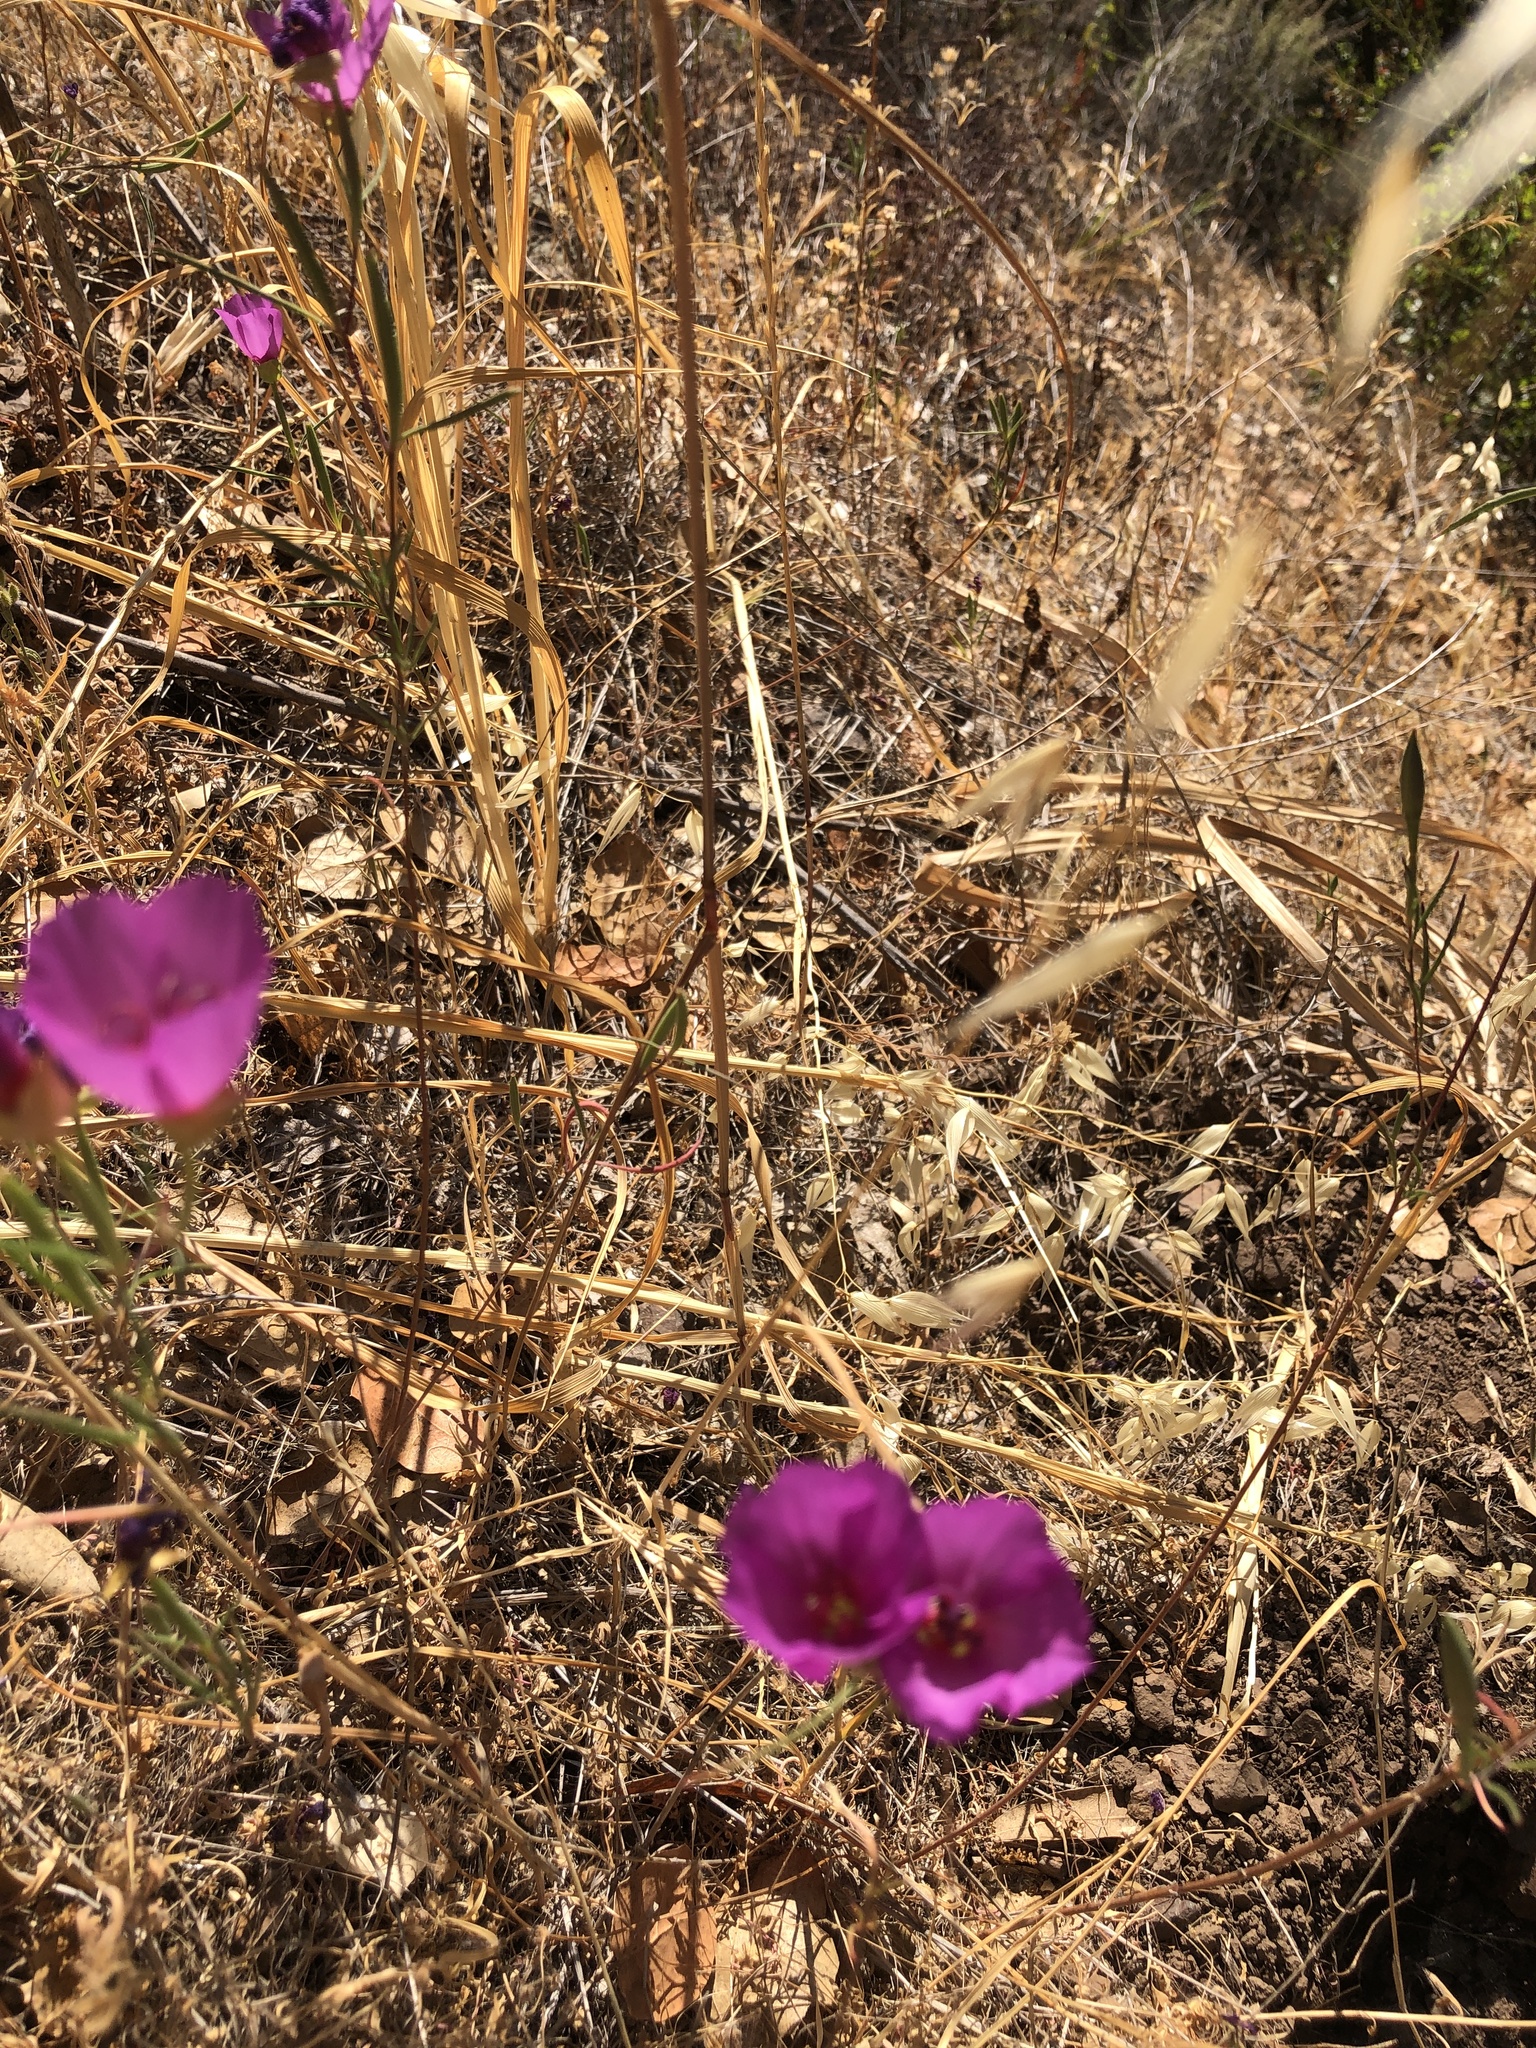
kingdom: Plantae
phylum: Tracheophyta
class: Magnoliopsida
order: Myrtales
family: Onagraceae
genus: Clarkia
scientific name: Clarkia rubicunda
